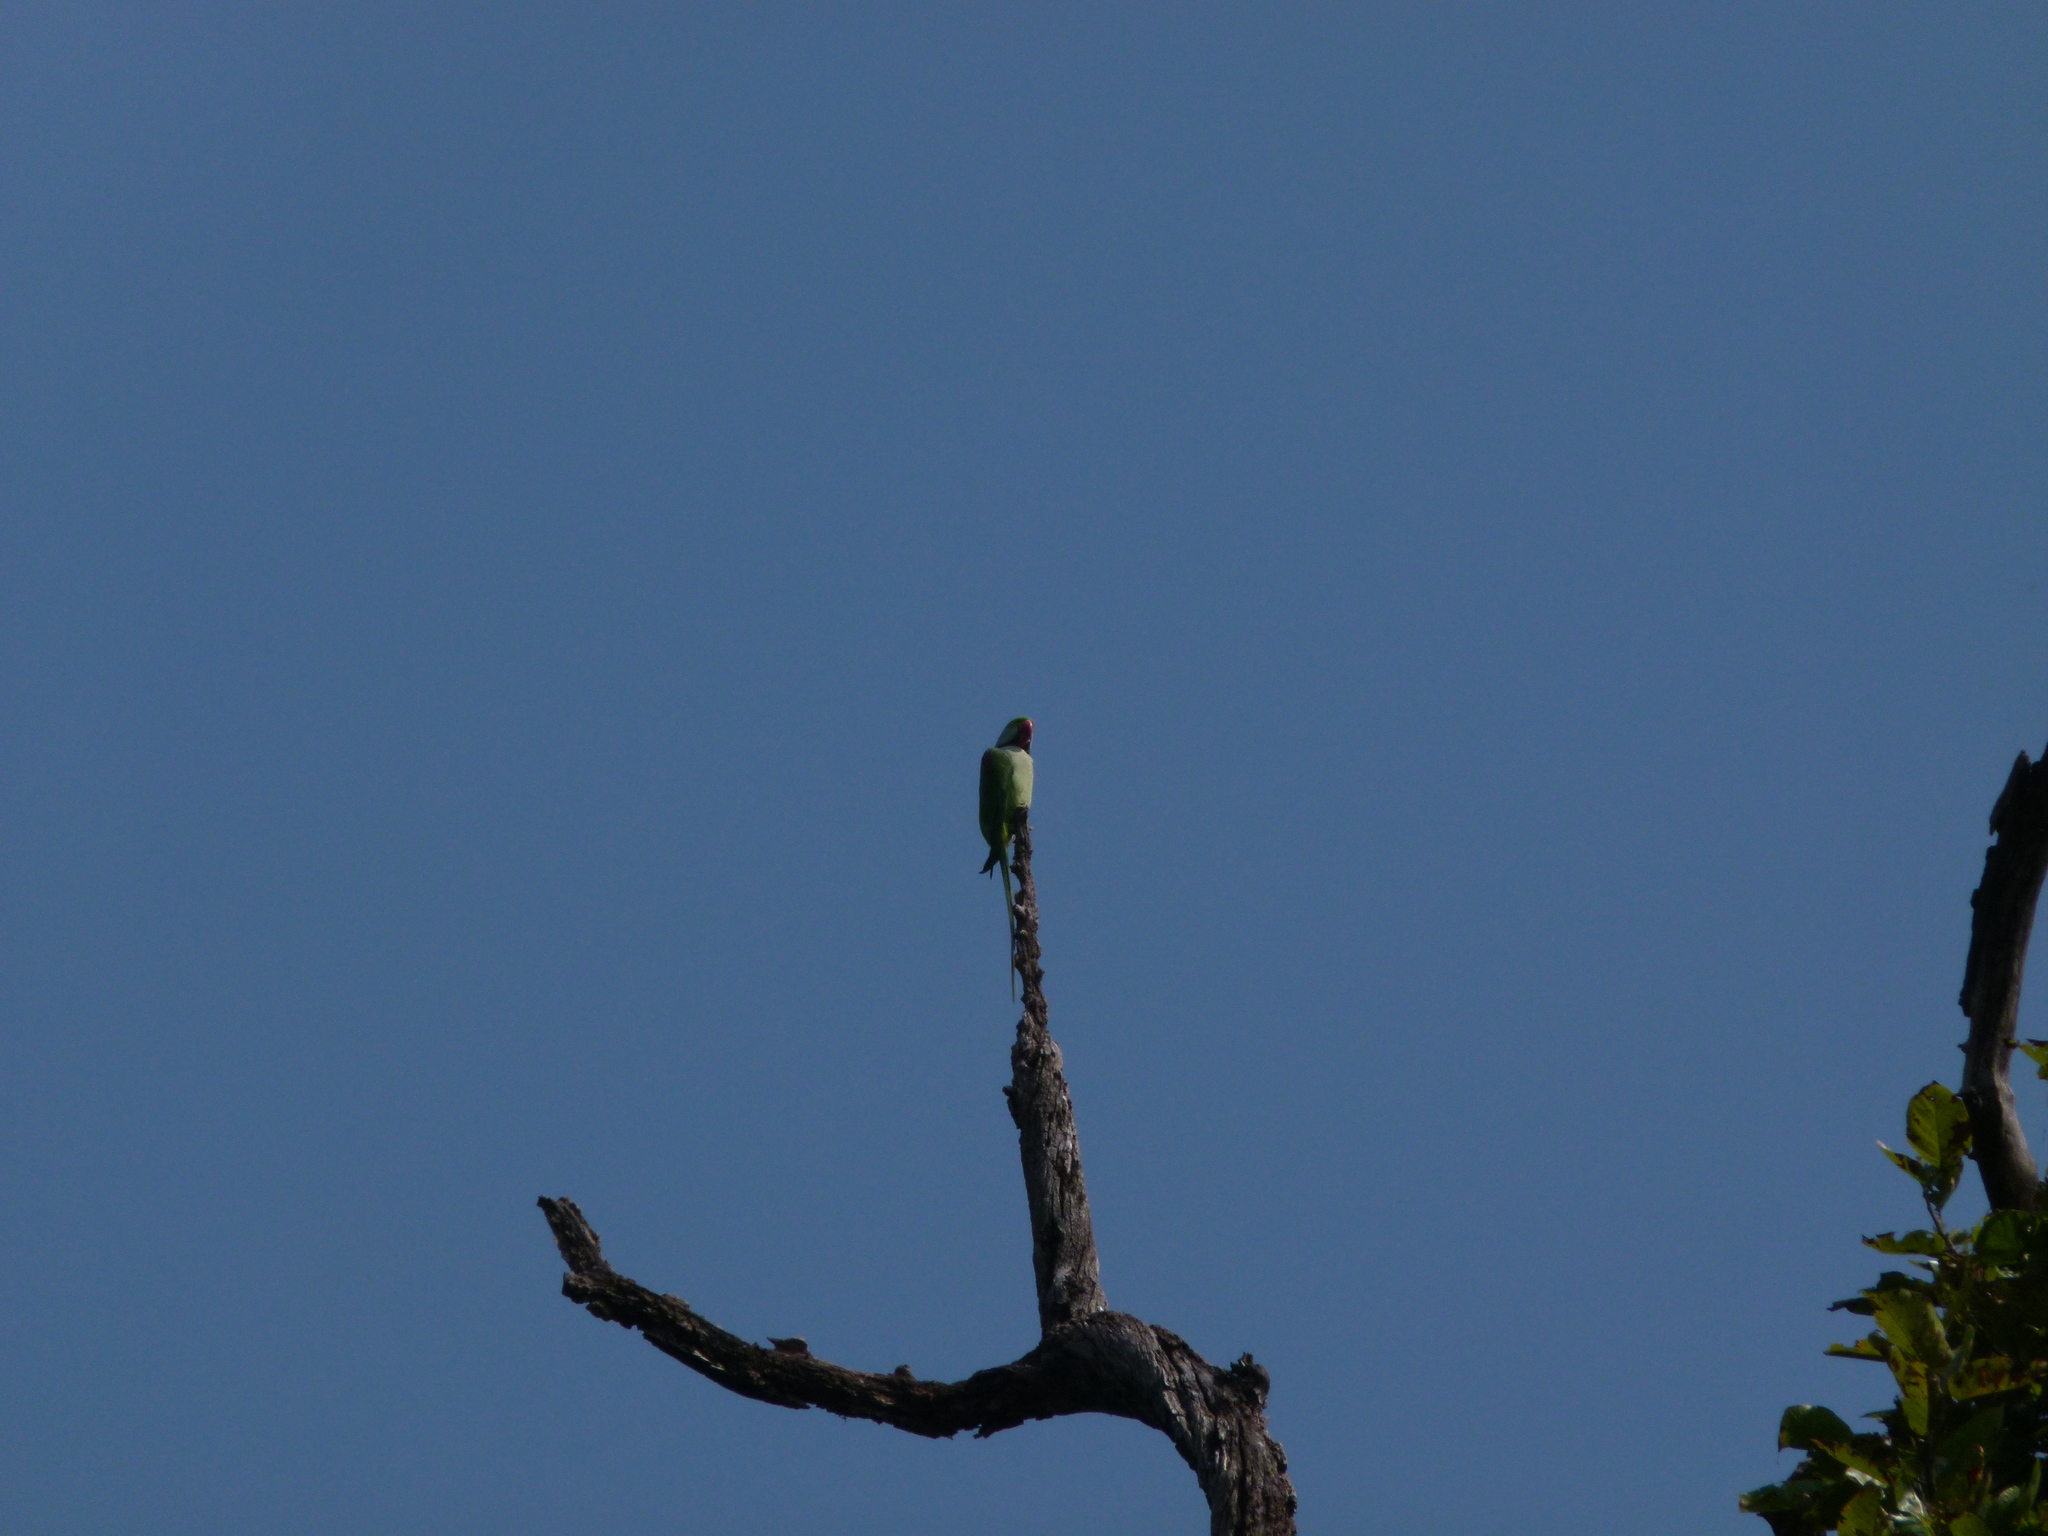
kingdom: Animalia
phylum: Chordata
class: Aves
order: Psittaciformes
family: Psittacidae
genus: Psittacula
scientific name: Psittacula eupatria
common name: Alexandrine parakeet
